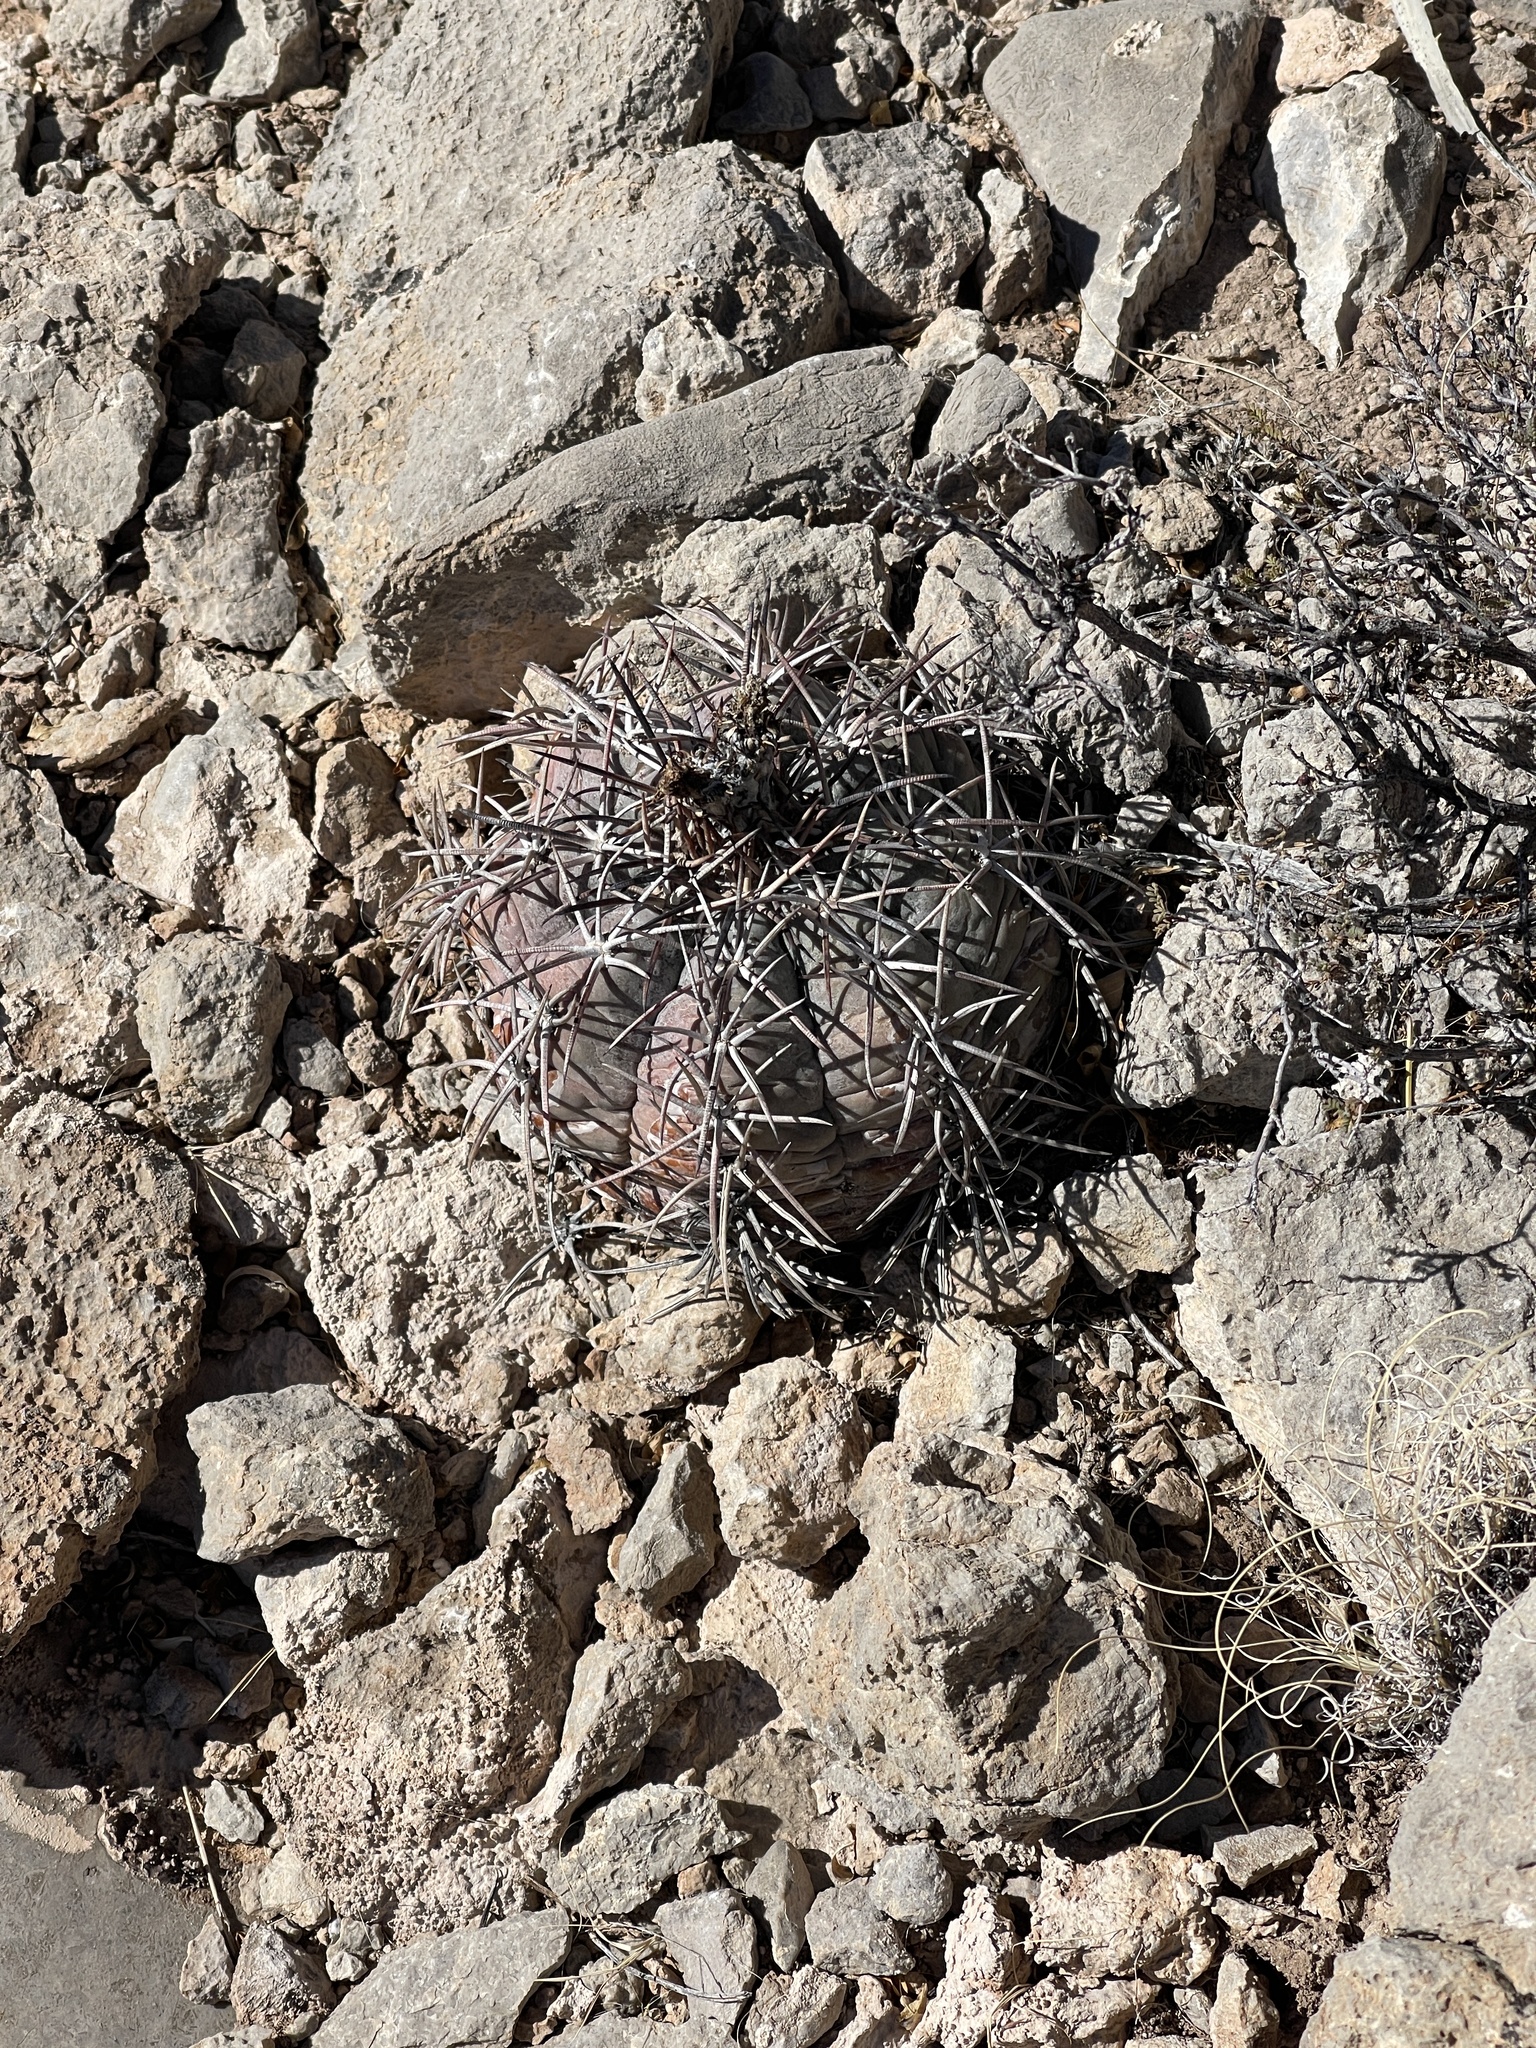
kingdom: Plantae
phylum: Tracheophyta
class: Magnoliopsida
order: Caryophyllales
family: Cactaceae
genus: Echinocactus
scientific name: Echinocactus horizonthalonius
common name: Devilshead
